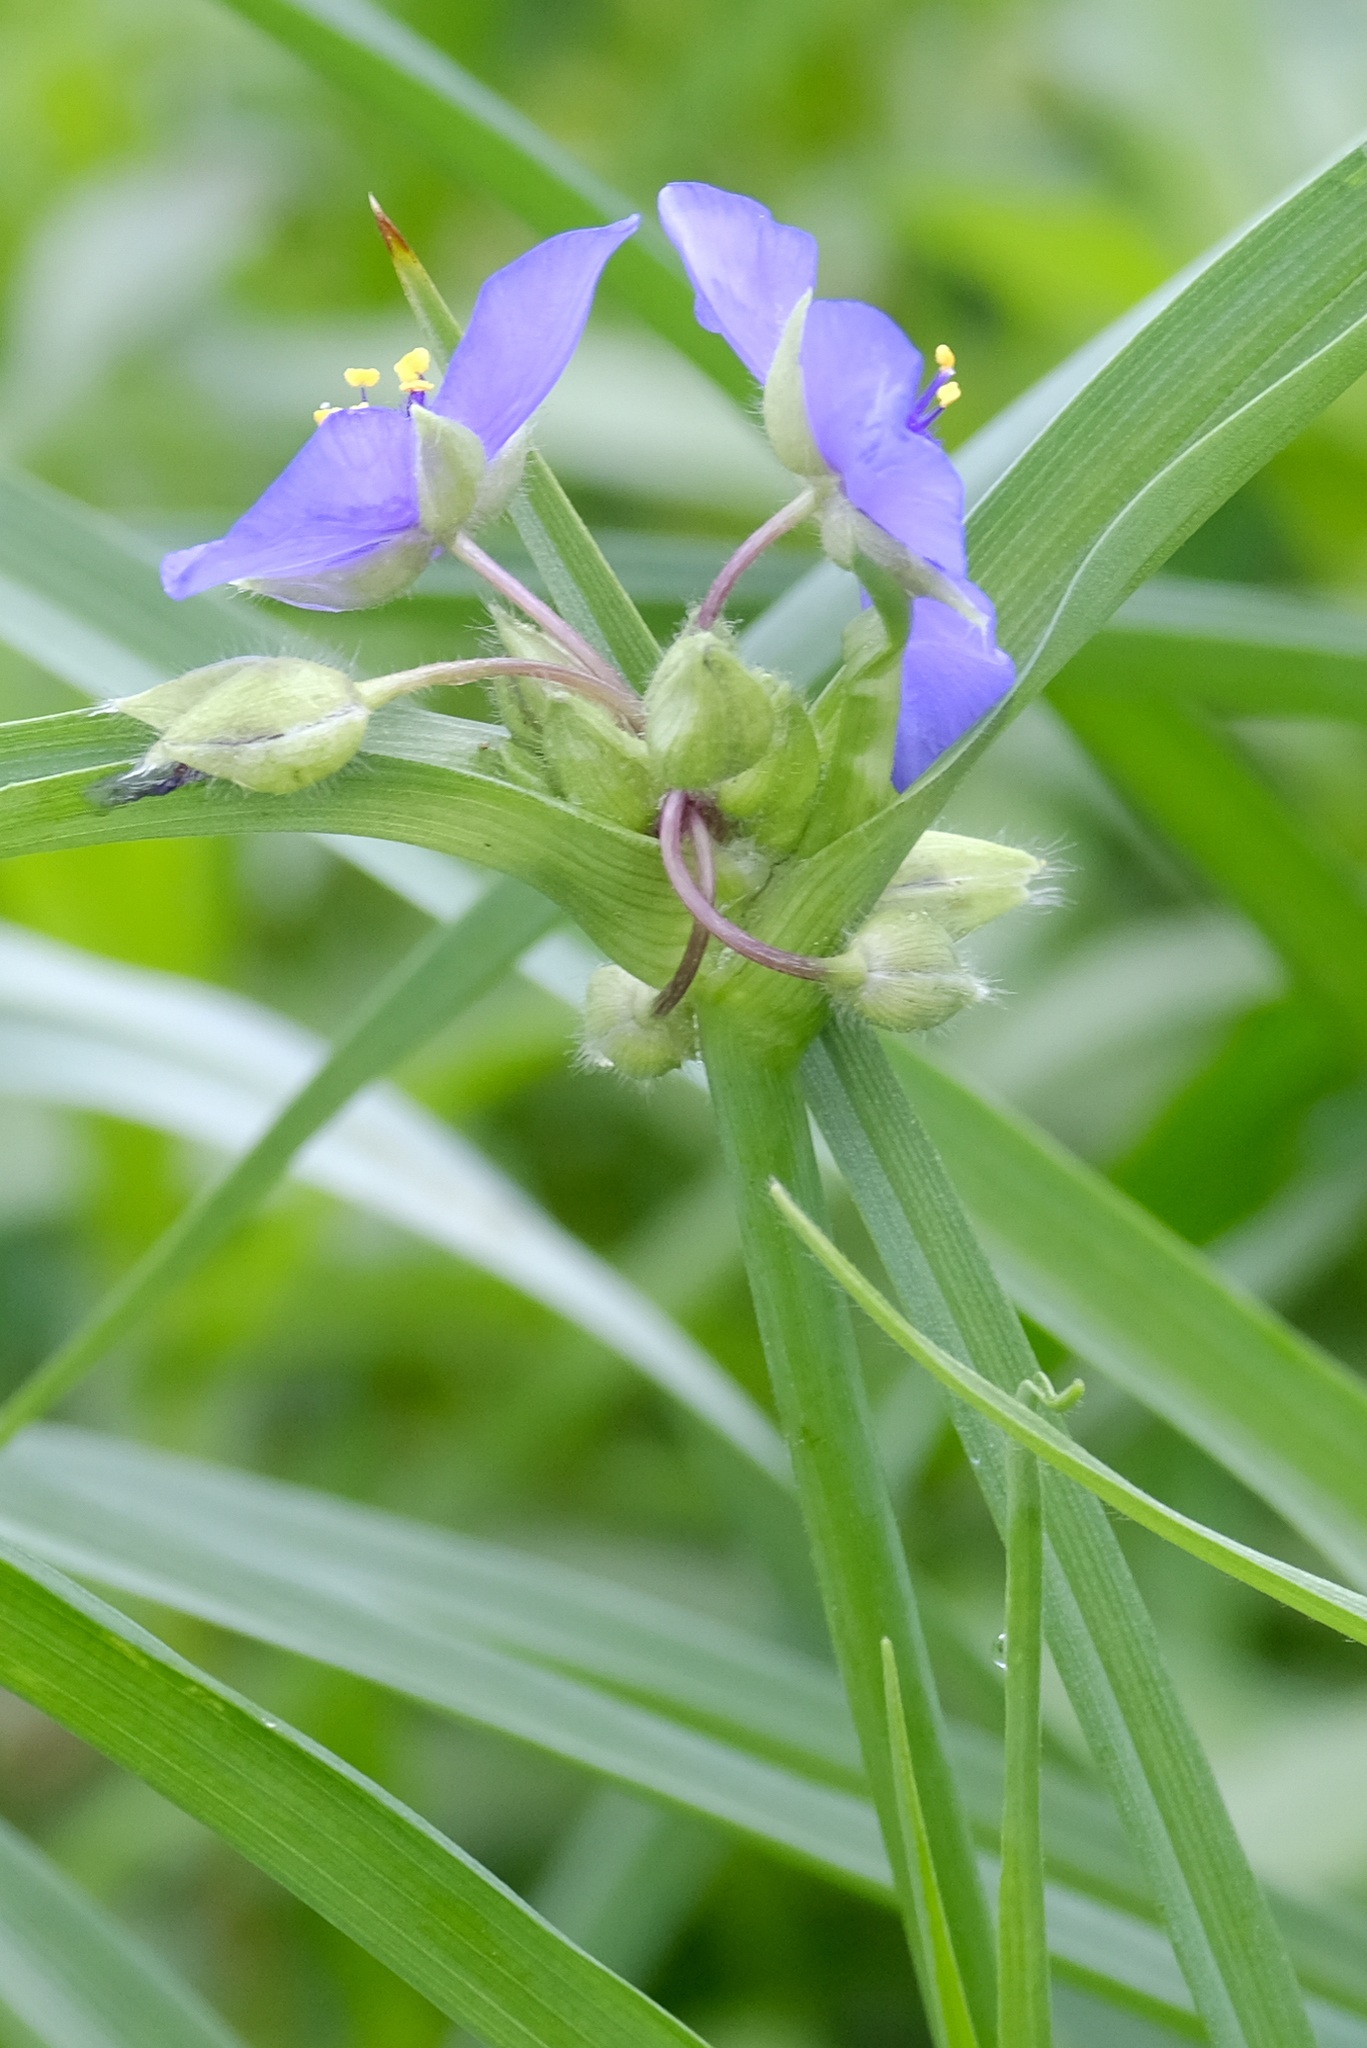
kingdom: Plantae
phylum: Tracheophyta
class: Liliopsida
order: Commelinales
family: Commelinaceae
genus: Tradescantia
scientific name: Tradescantia virginiana
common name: Spiderwort
